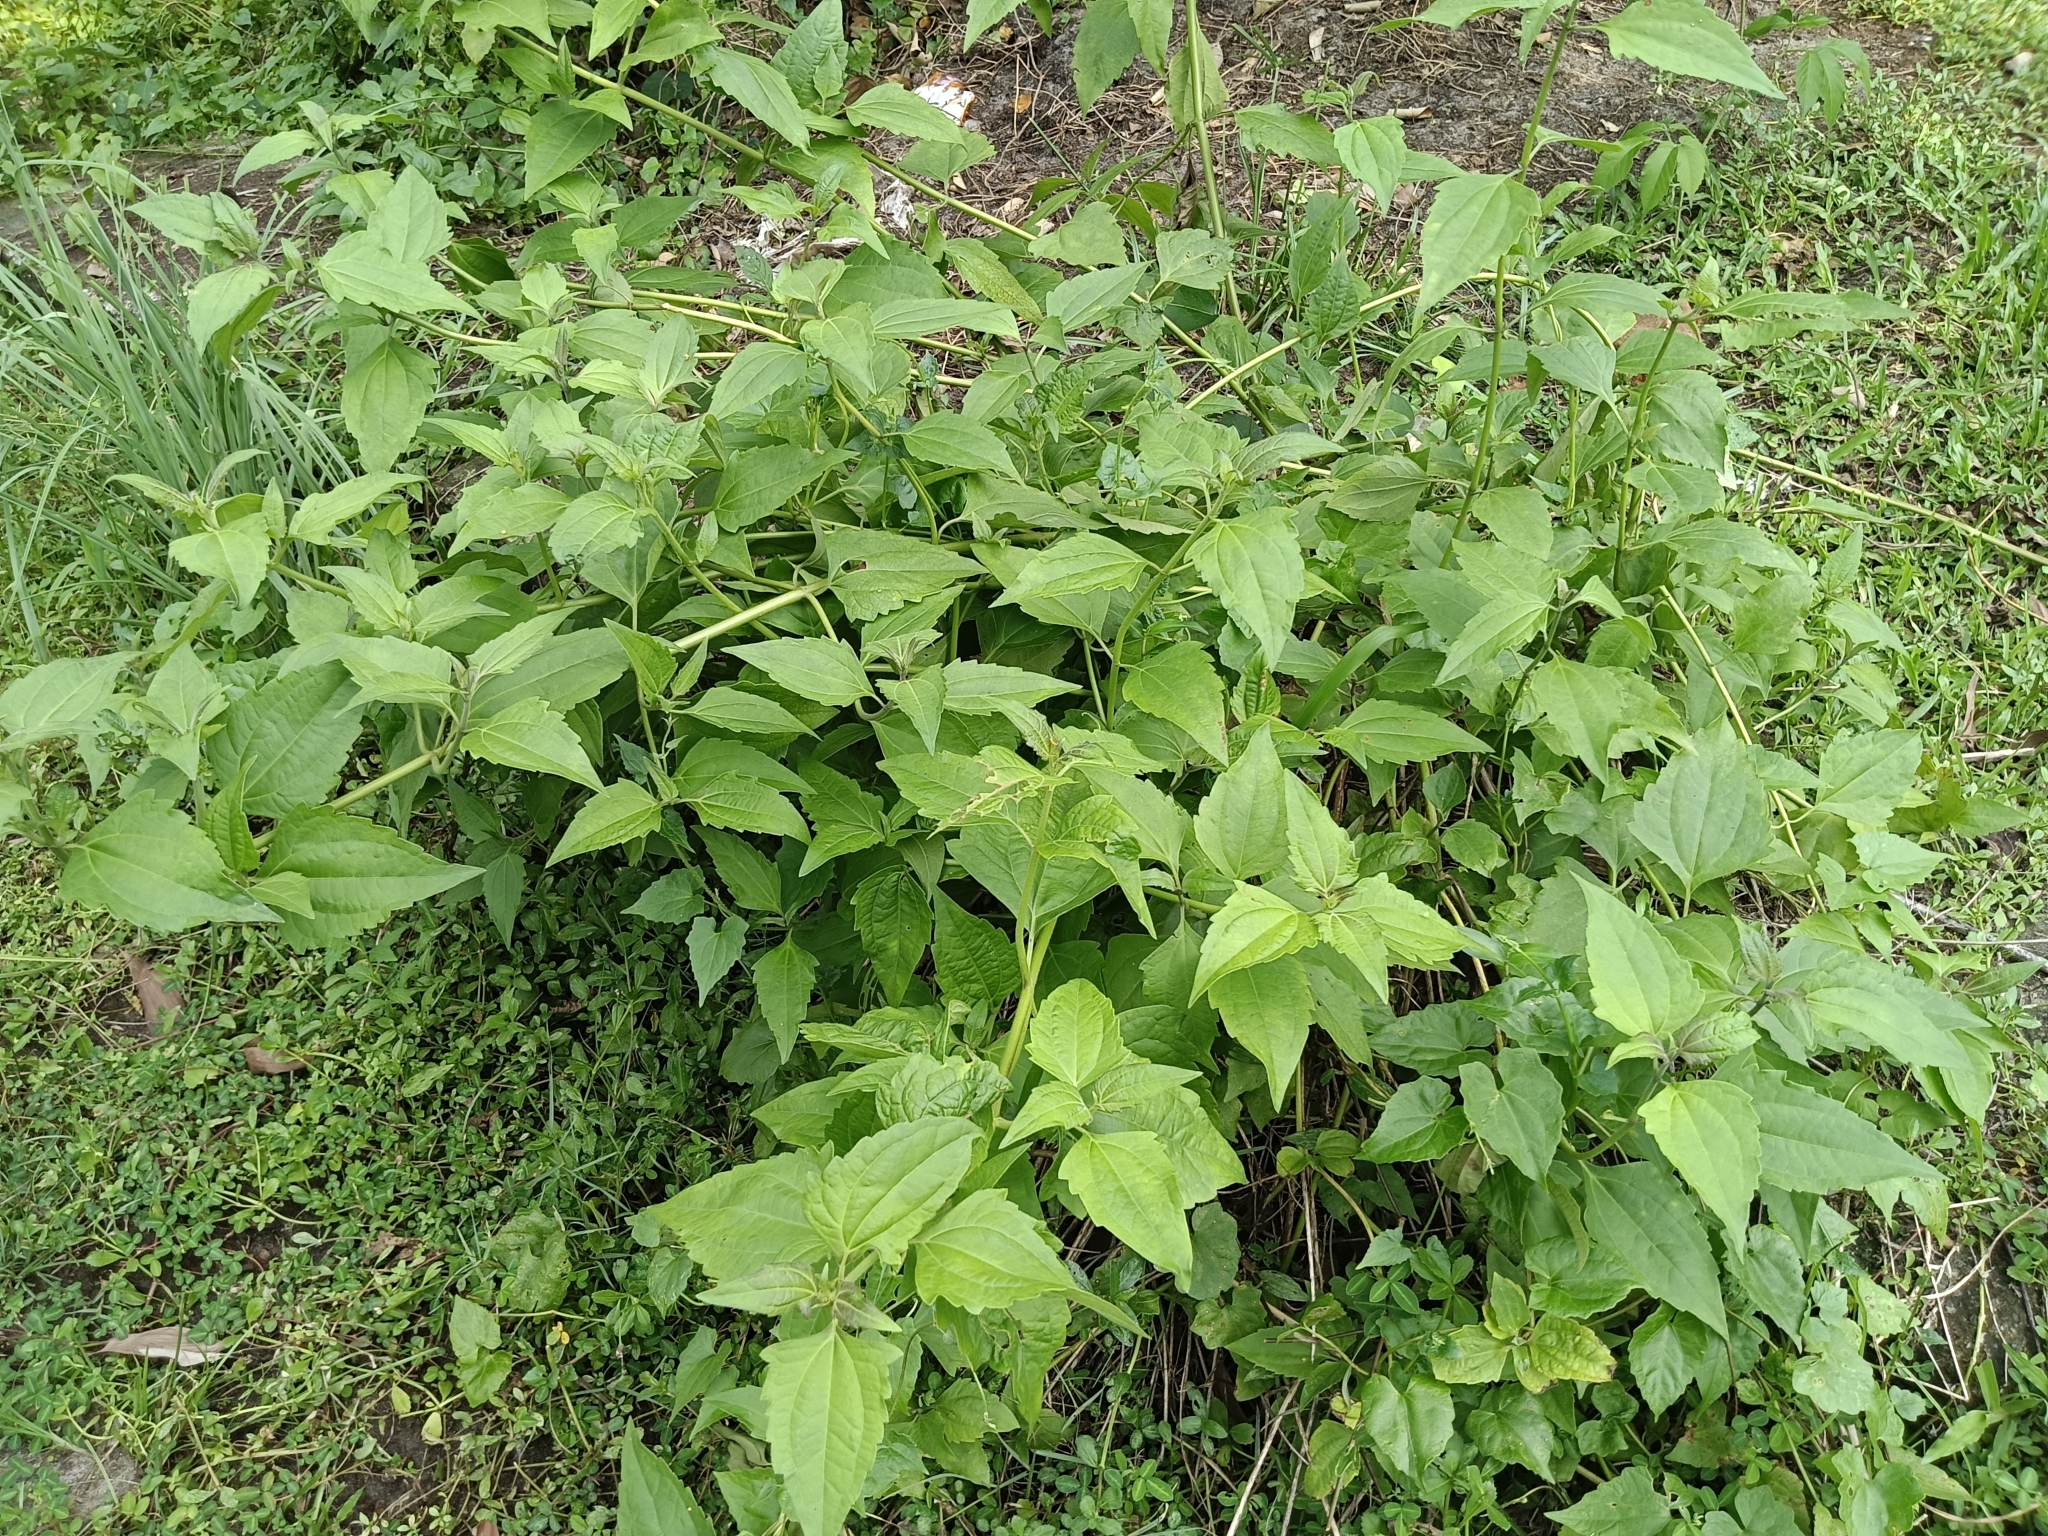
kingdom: Plantae
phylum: Tracheophyta
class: Magnoliopsida
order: Asterales
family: Asteraceae
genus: Chromolaena
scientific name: Chromolaena odorata
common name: Siamweed
